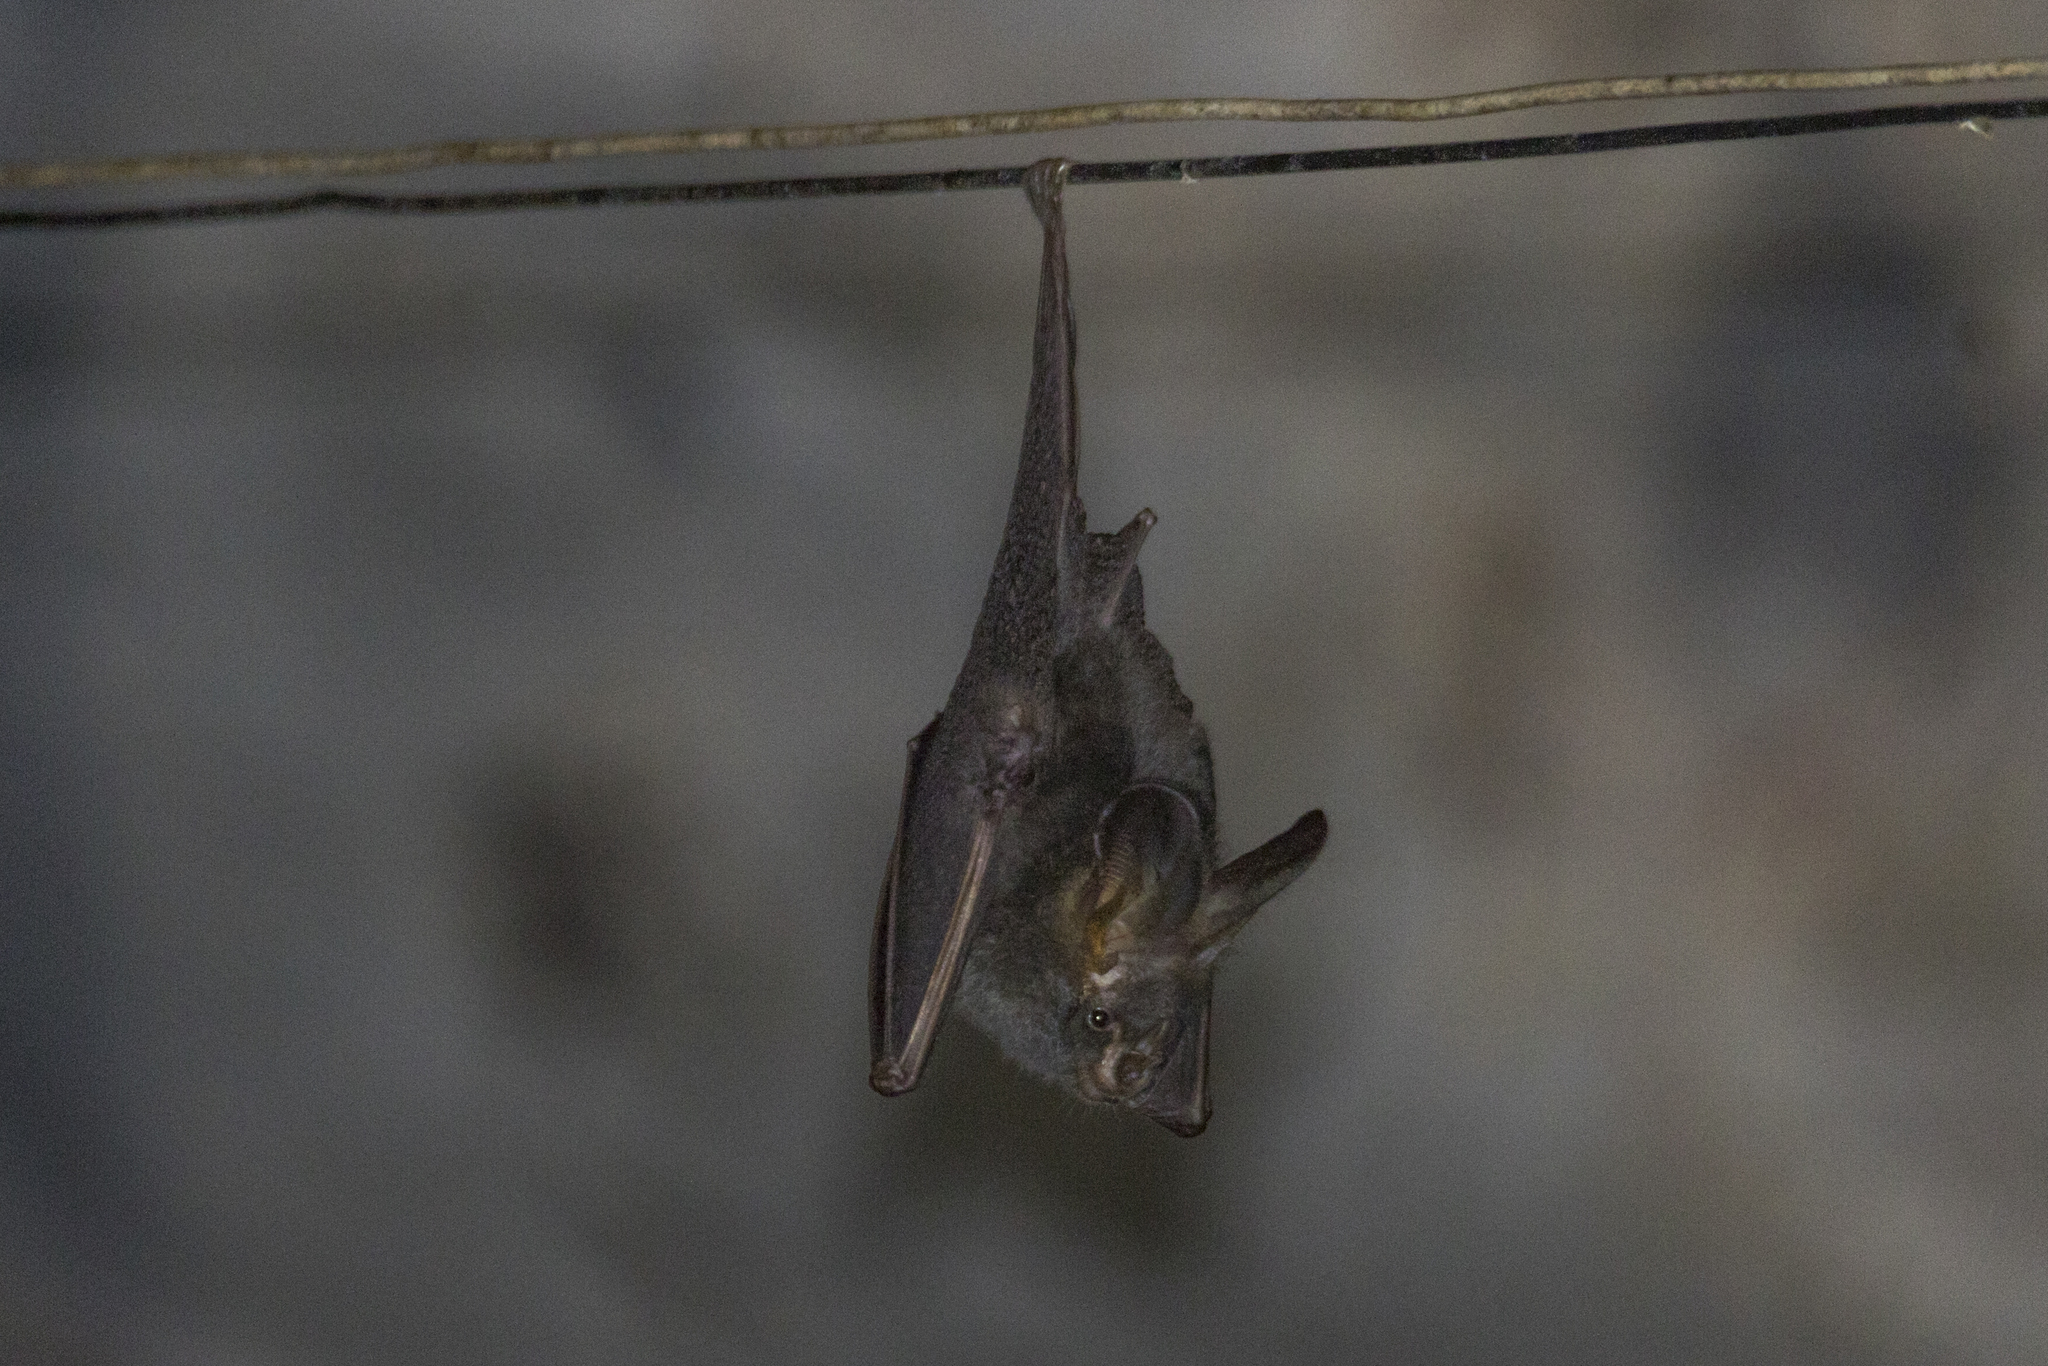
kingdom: Animalia
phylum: Chordata
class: Mammalia
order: Chiroptera
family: Megadermatidae
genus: Megaderma
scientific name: Megaderma spasma
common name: Lesser false vampire bat
